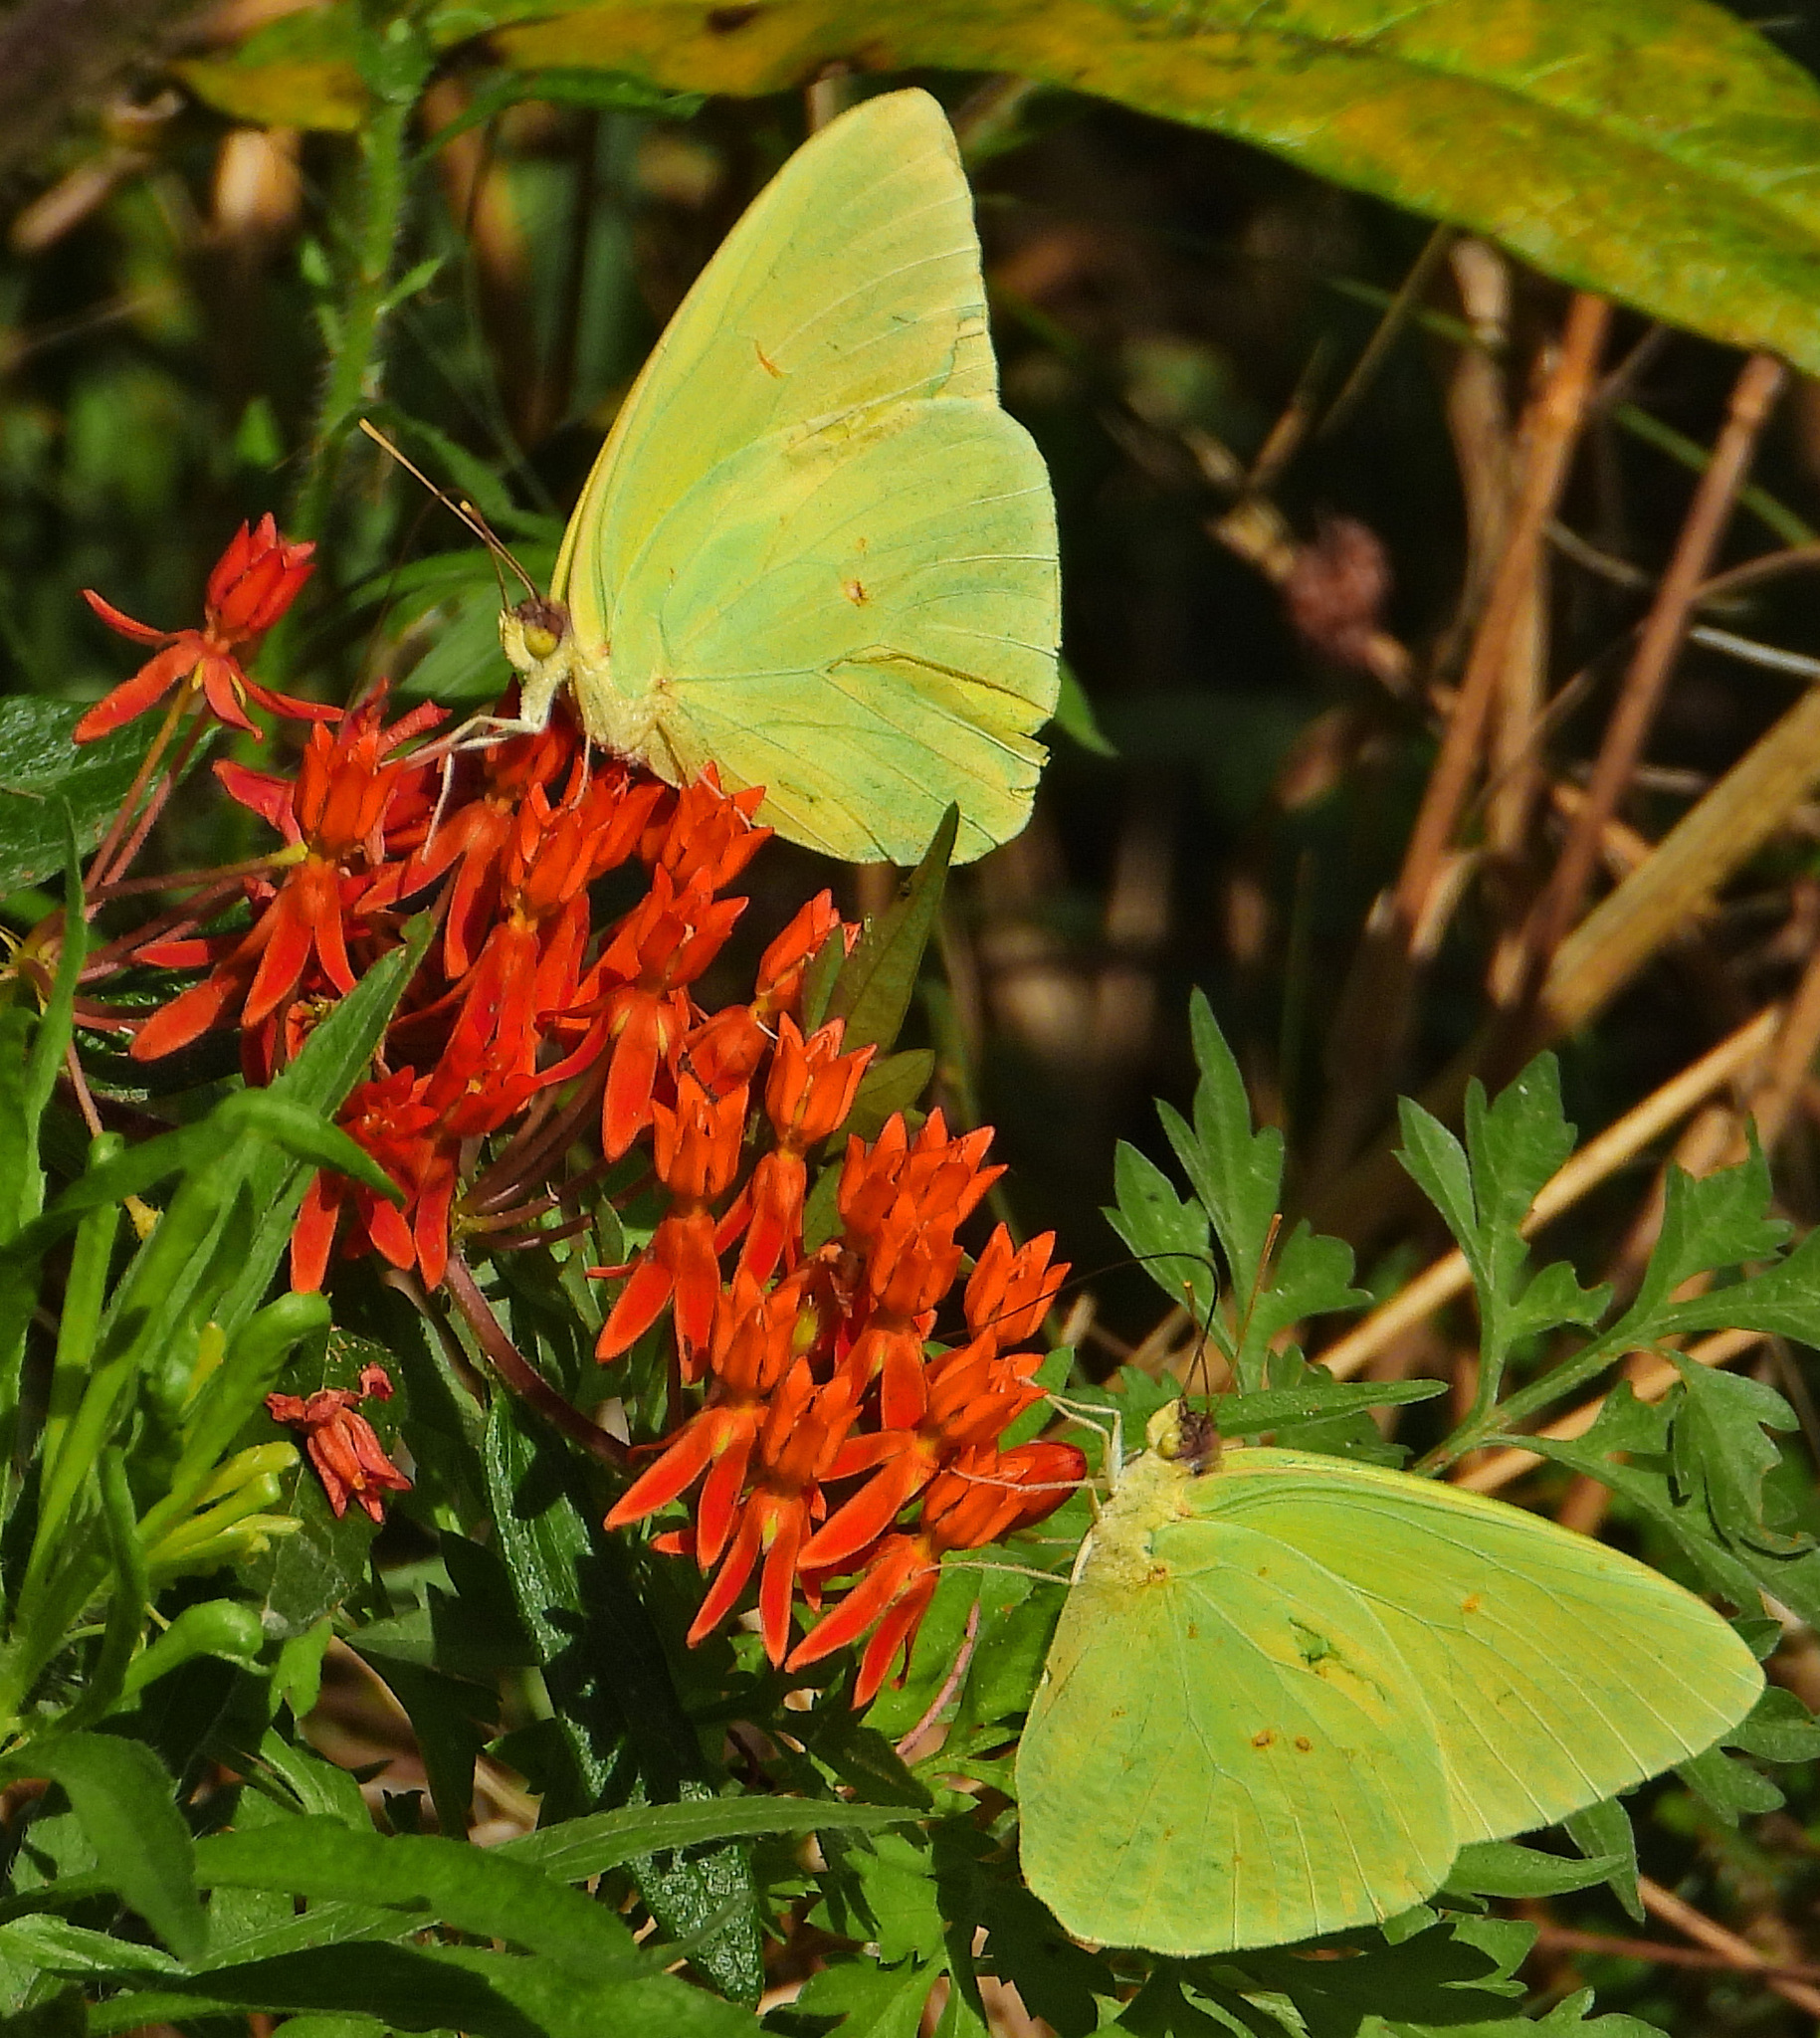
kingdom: Animalia
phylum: Arthropoda
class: Insecta
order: Lepidoptera
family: Pieridae
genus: Phoebis
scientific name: Phoebis sennae
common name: Cloudless sulphur
